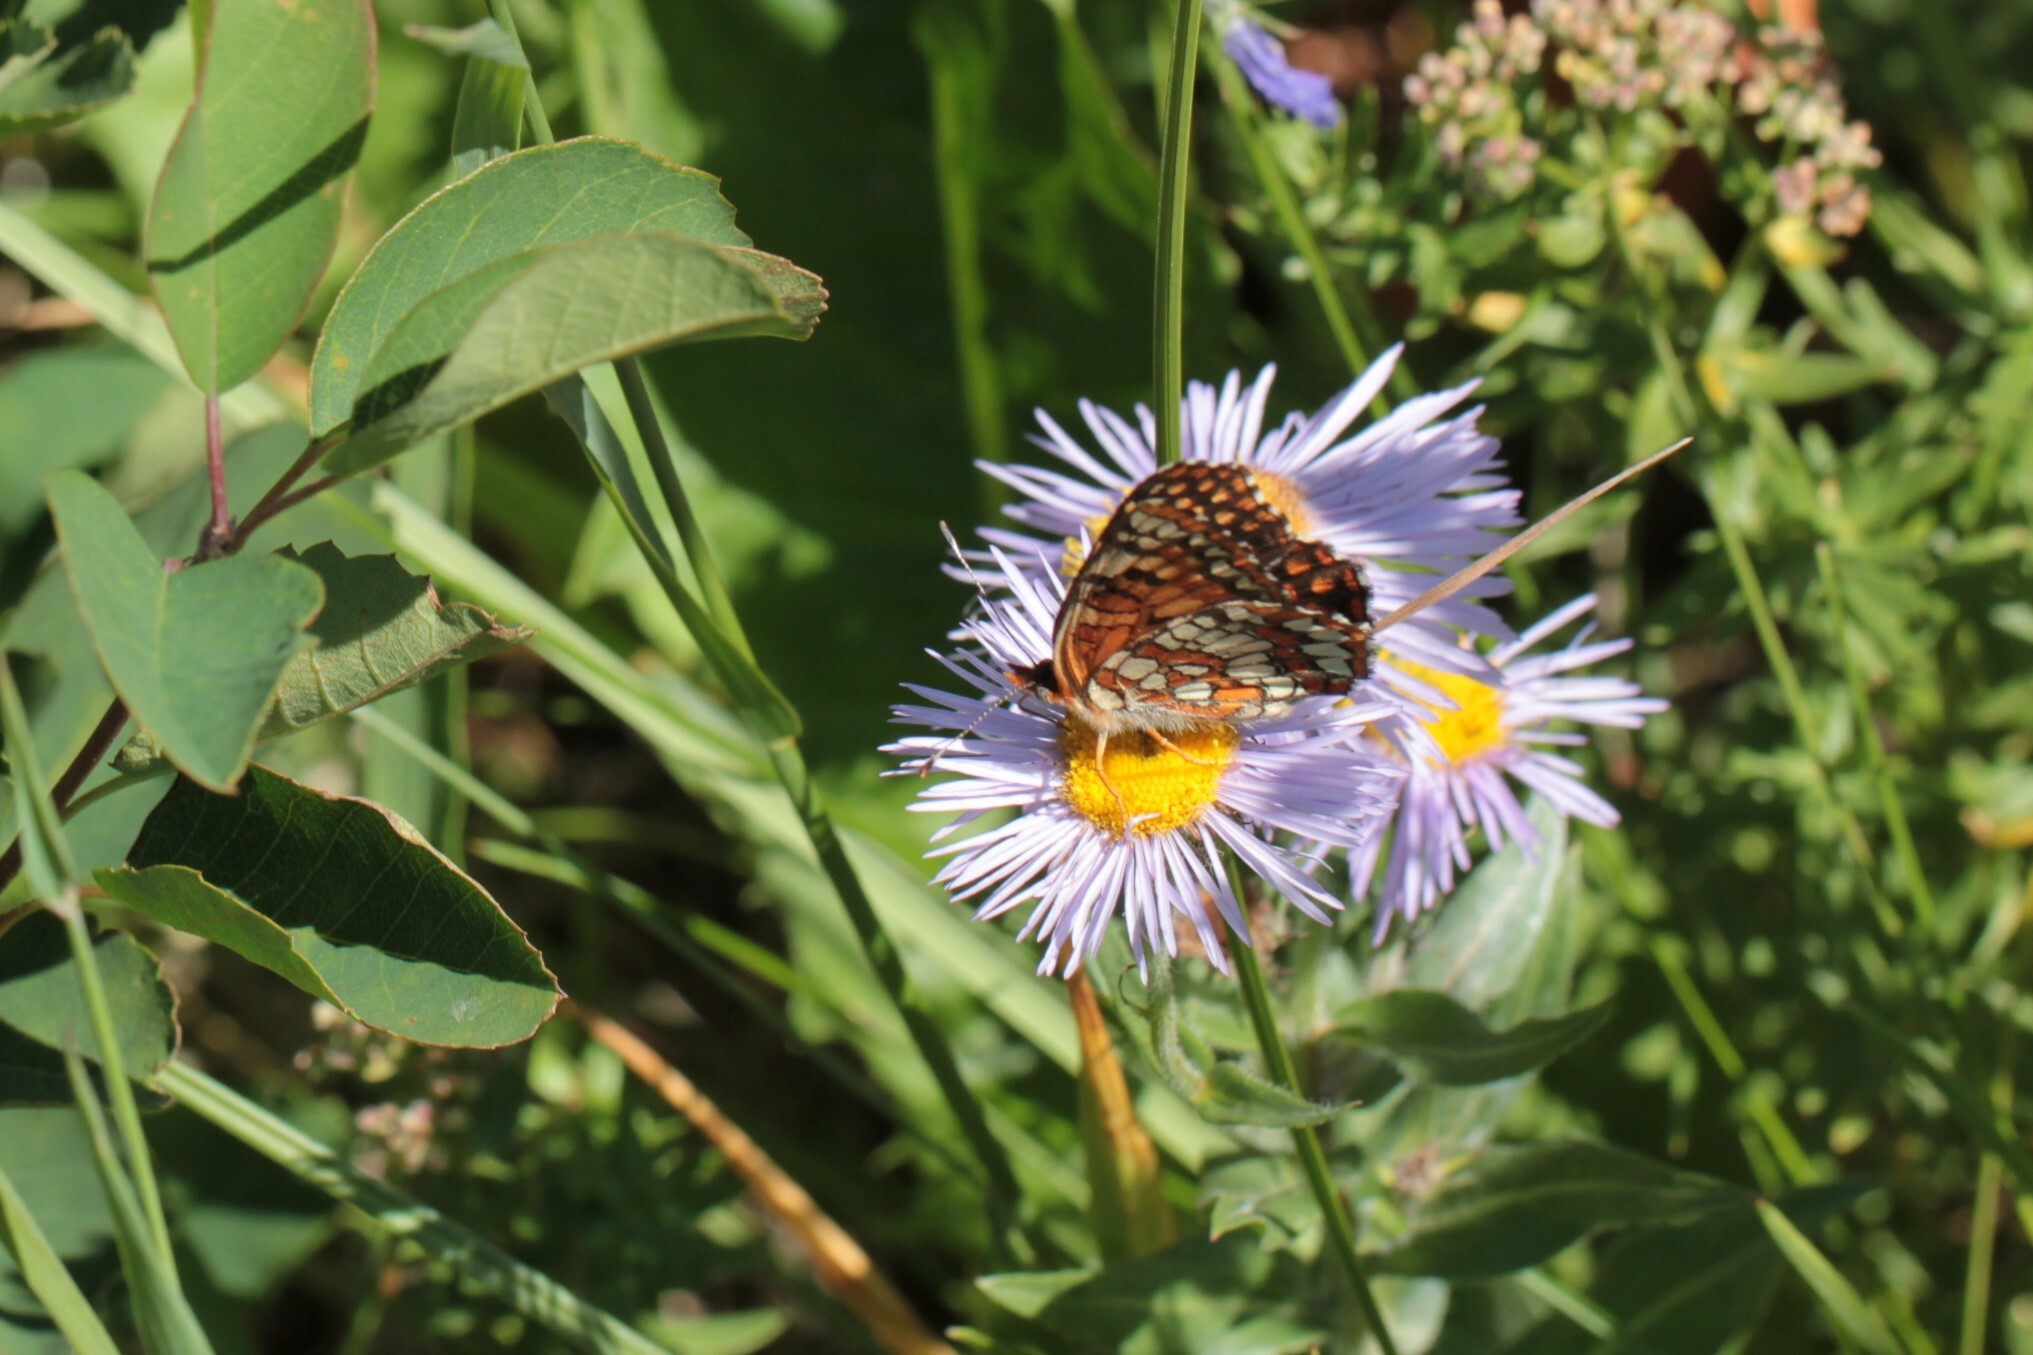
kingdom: Animalia
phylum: Arthropoda
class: Insecta
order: Lepidoptera
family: Nymphalidae
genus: Chlosyne
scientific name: Chlosyne palla
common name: Northern checkerspot
